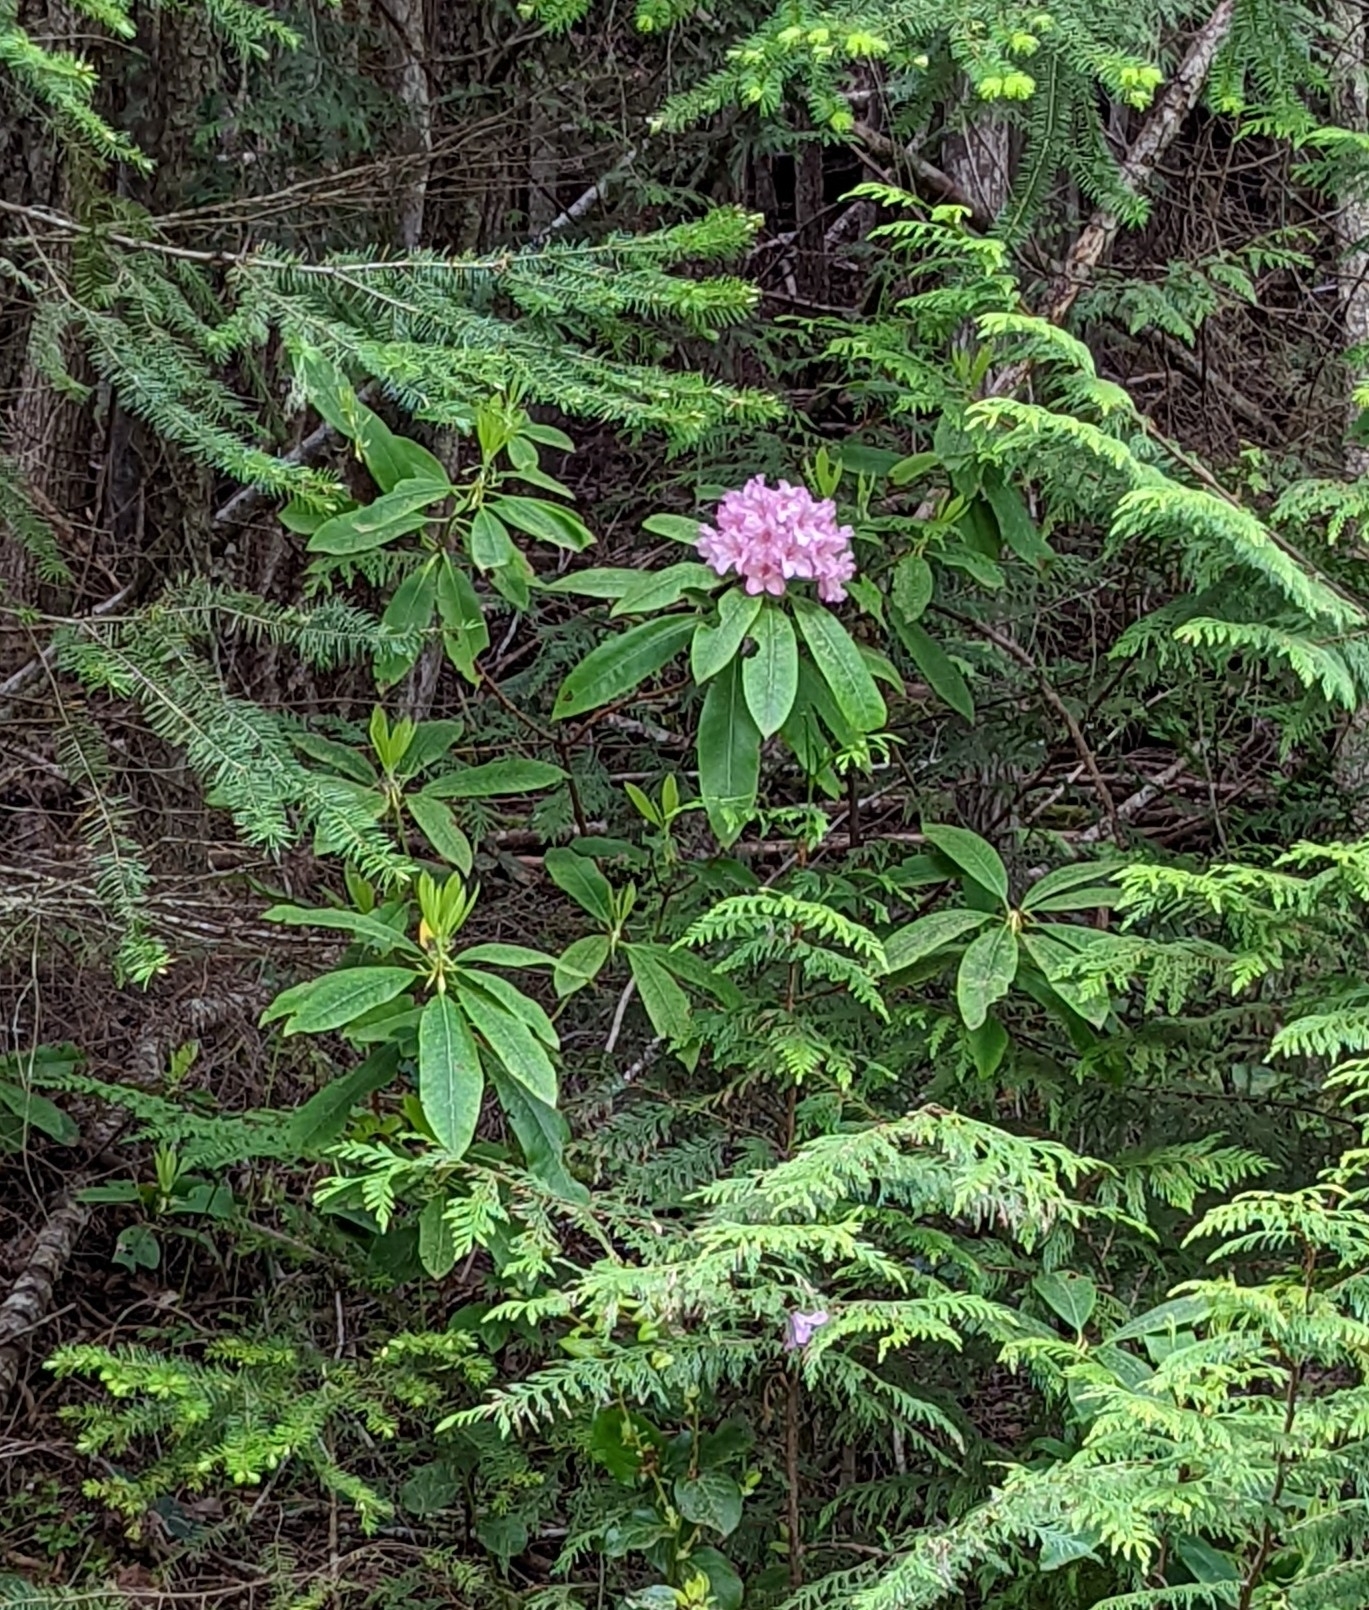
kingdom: Plantae
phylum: Tracheophyta
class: Magnoliopsida
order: Ericales
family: Ericaceae
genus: Rhododendron
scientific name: Rhododendron macrophyllum
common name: California rose bay
